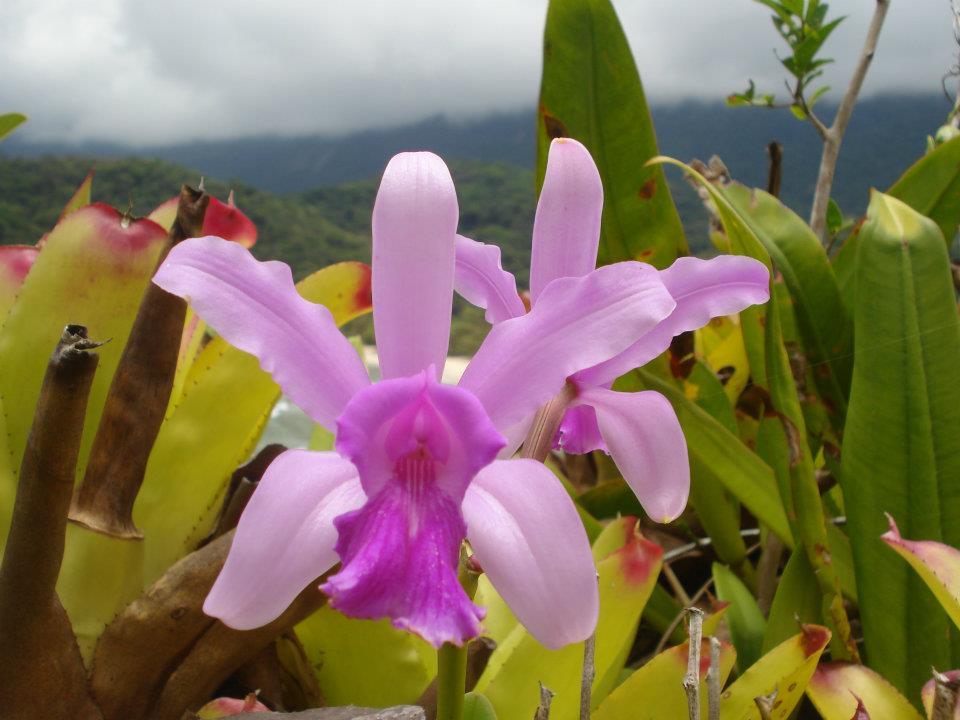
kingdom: Plantae
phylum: Tracheophyta
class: Liliopsida
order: Asparagales
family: Orchidaceae
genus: Cattleya
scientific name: Cattleya intermedia
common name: Intermediate cattleya
